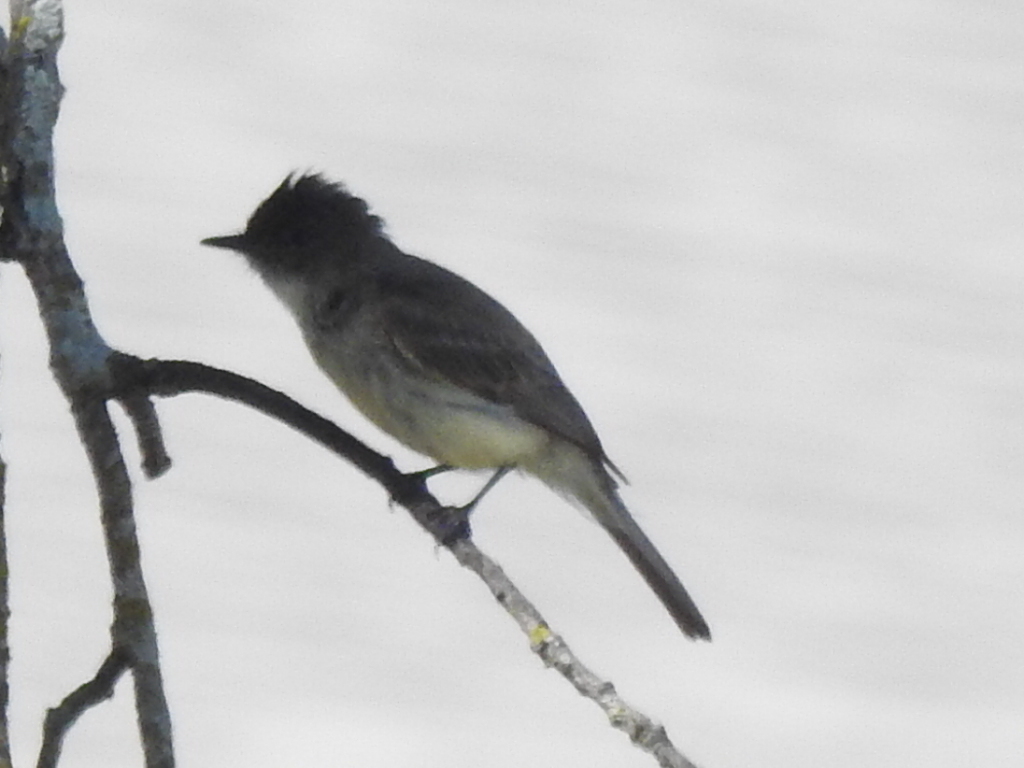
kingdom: Animalia
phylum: Chordata
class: Aves
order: Passeriformes
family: Tyrannidae
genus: Sayornis
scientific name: Sayornis phoebe
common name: Eastern phoebe
